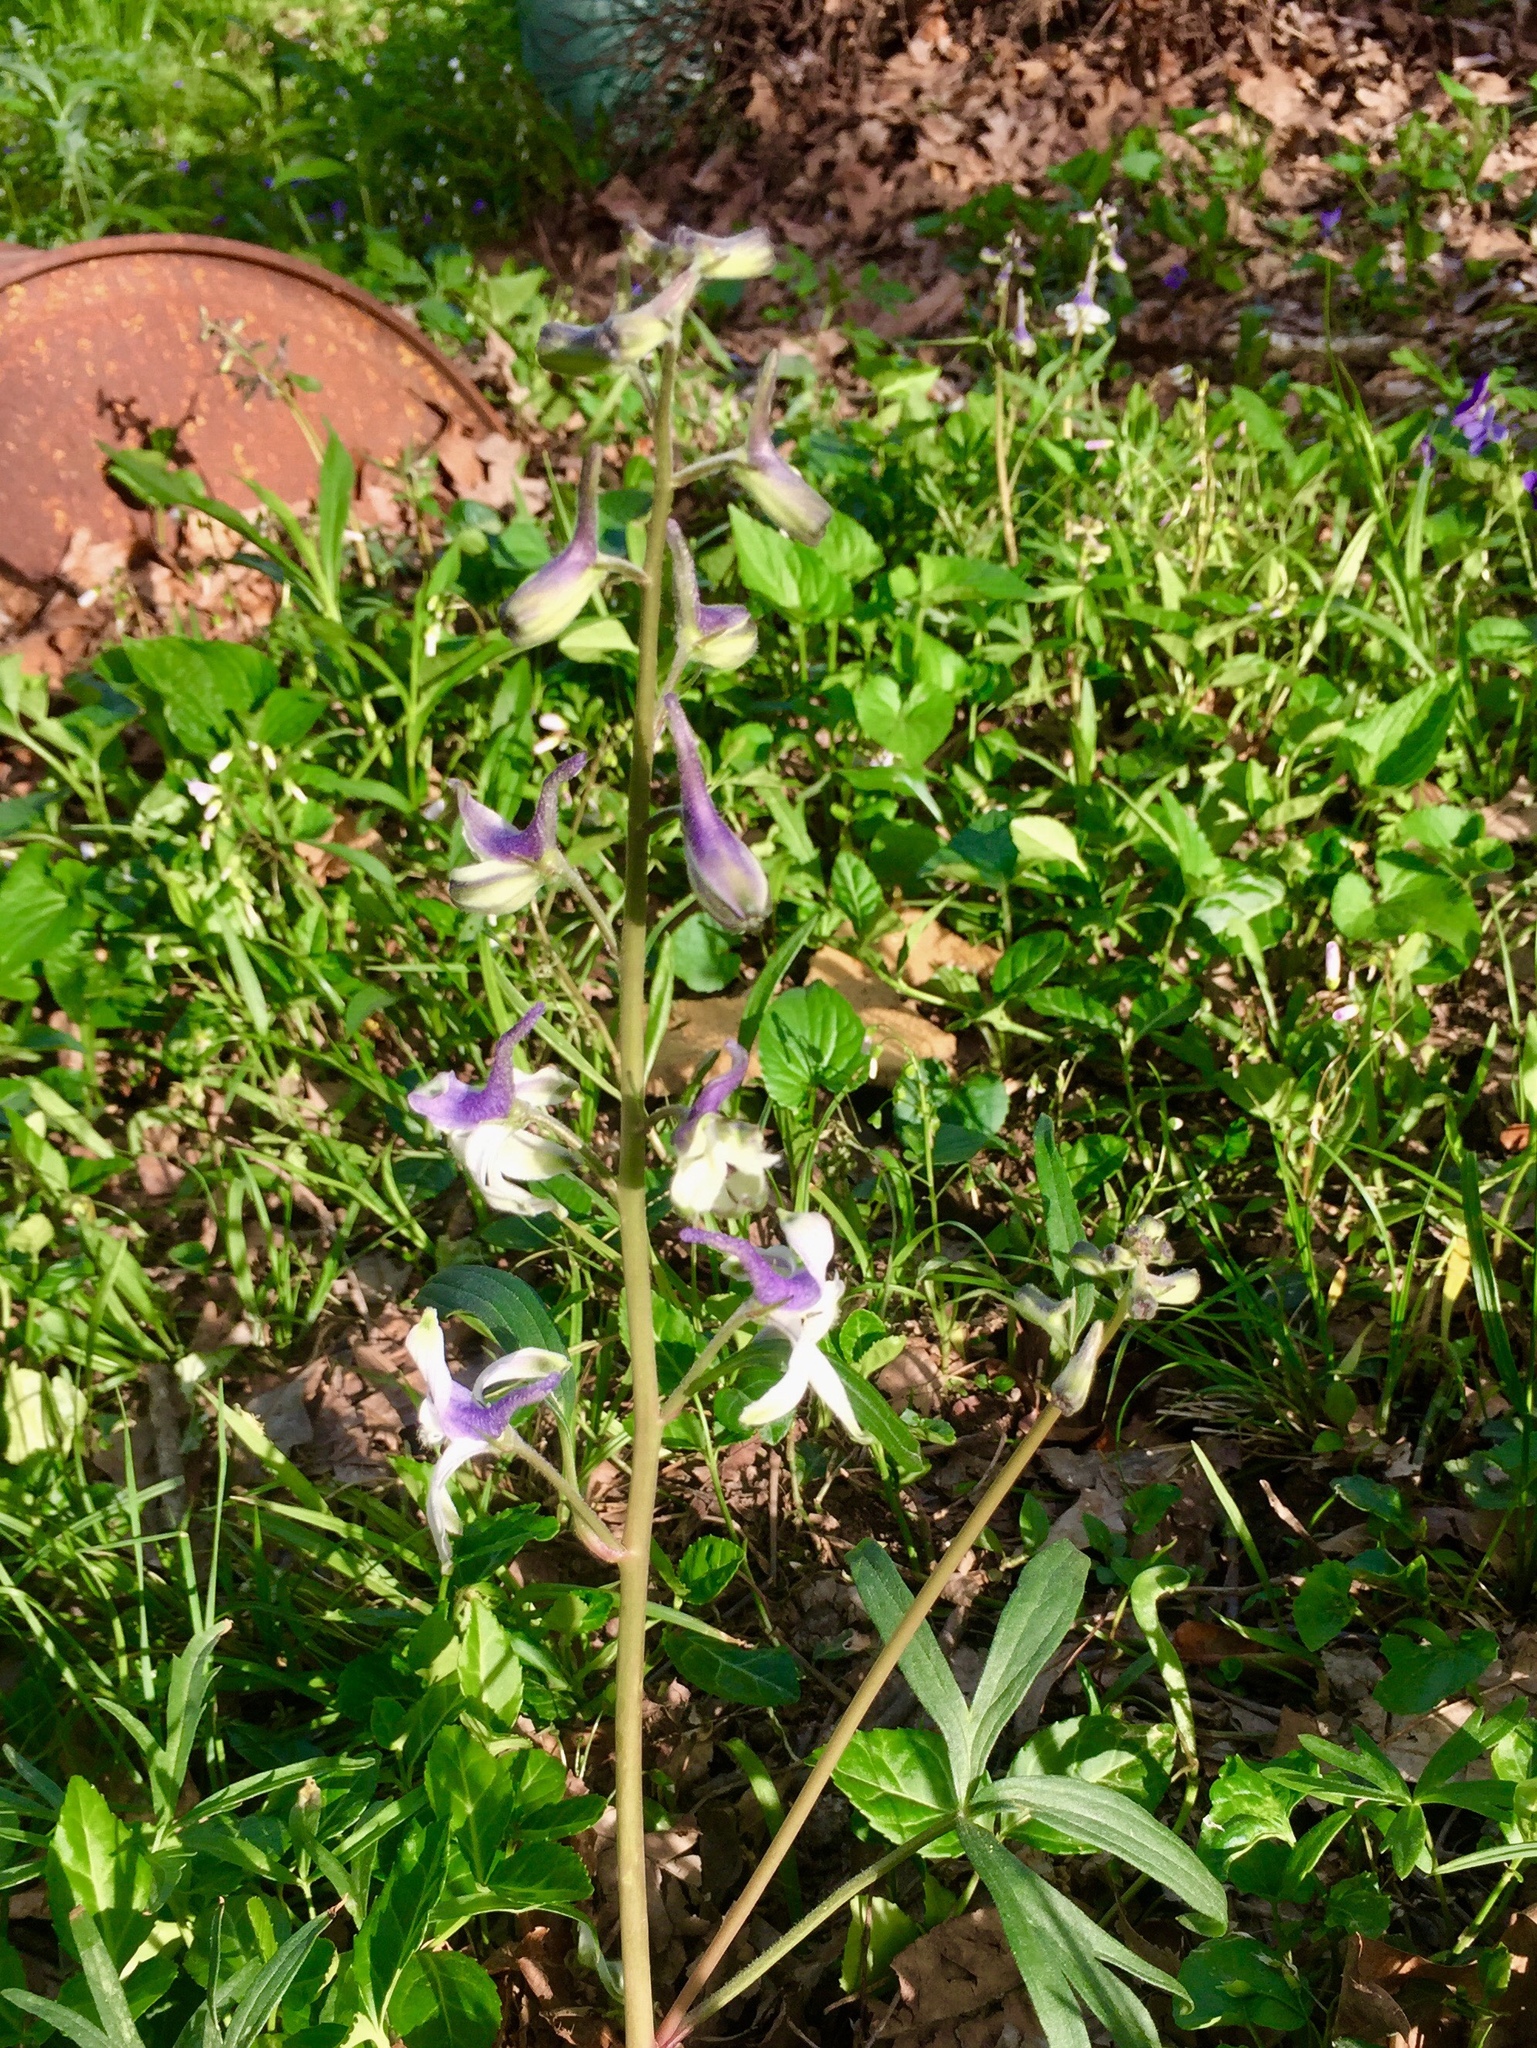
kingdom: Plantae
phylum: Tracheophyta
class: Magnoliopsida
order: Ranunculales
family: Ranunculaceae
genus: Delphinium
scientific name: Delphinium tricorne
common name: Dwarf larkspur
